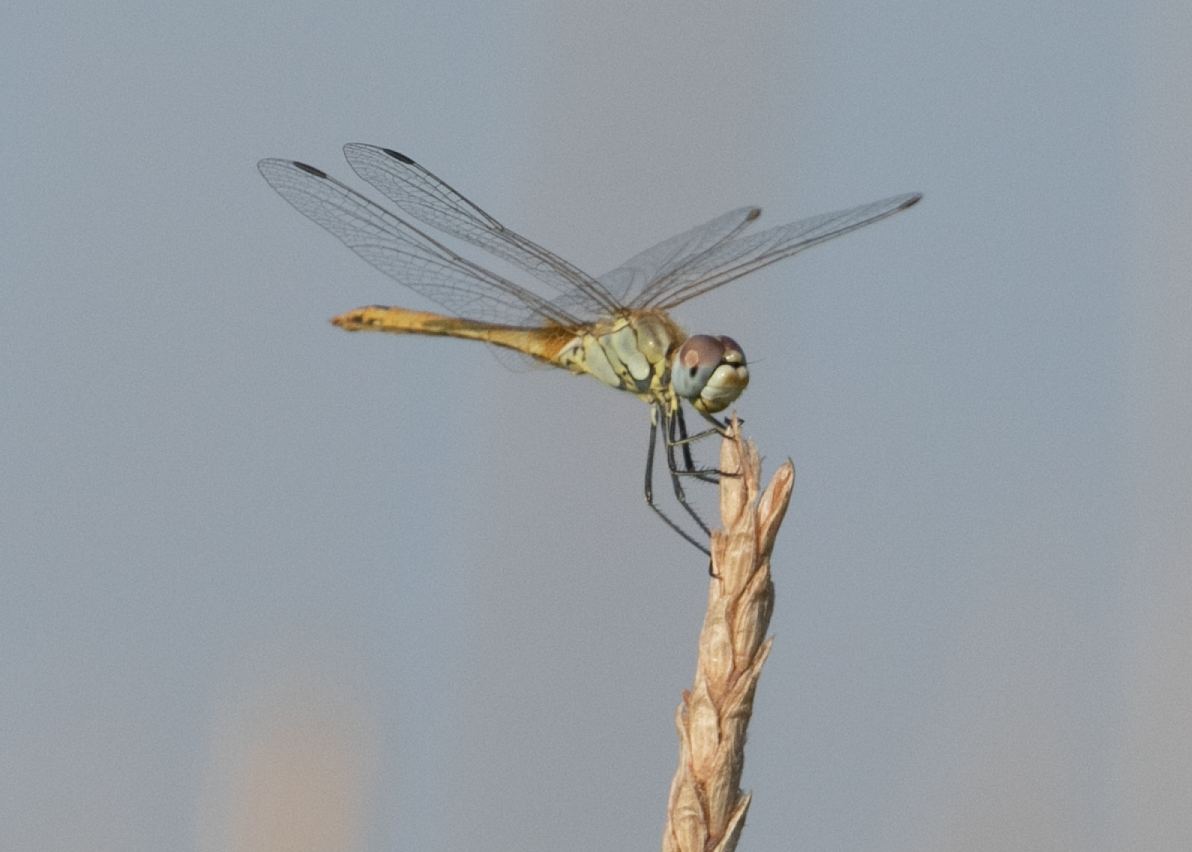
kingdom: Animalia
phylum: Arthropoda
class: Insecta
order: Odonata
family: Libellulidae
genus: Sympetrum
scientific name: Sympetrum fonscolombii
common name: Red-veined darter
